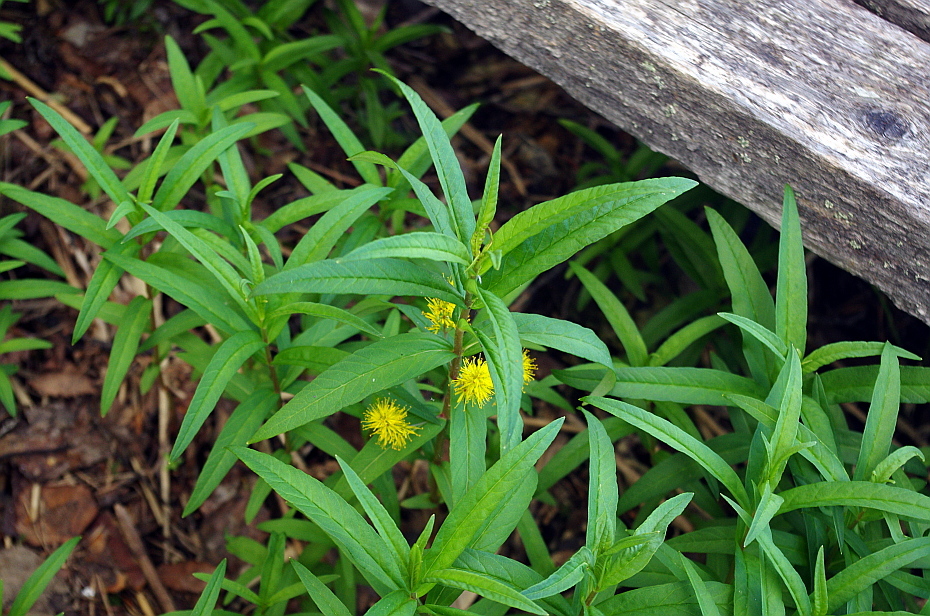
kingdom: Plantae
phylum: Tracheophyta
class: Magnoliopsida
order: Ericales
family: Primulaceae
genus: Lysimachia
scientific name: Lysimachia thyrsiflora
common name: Tufted loosestrife
